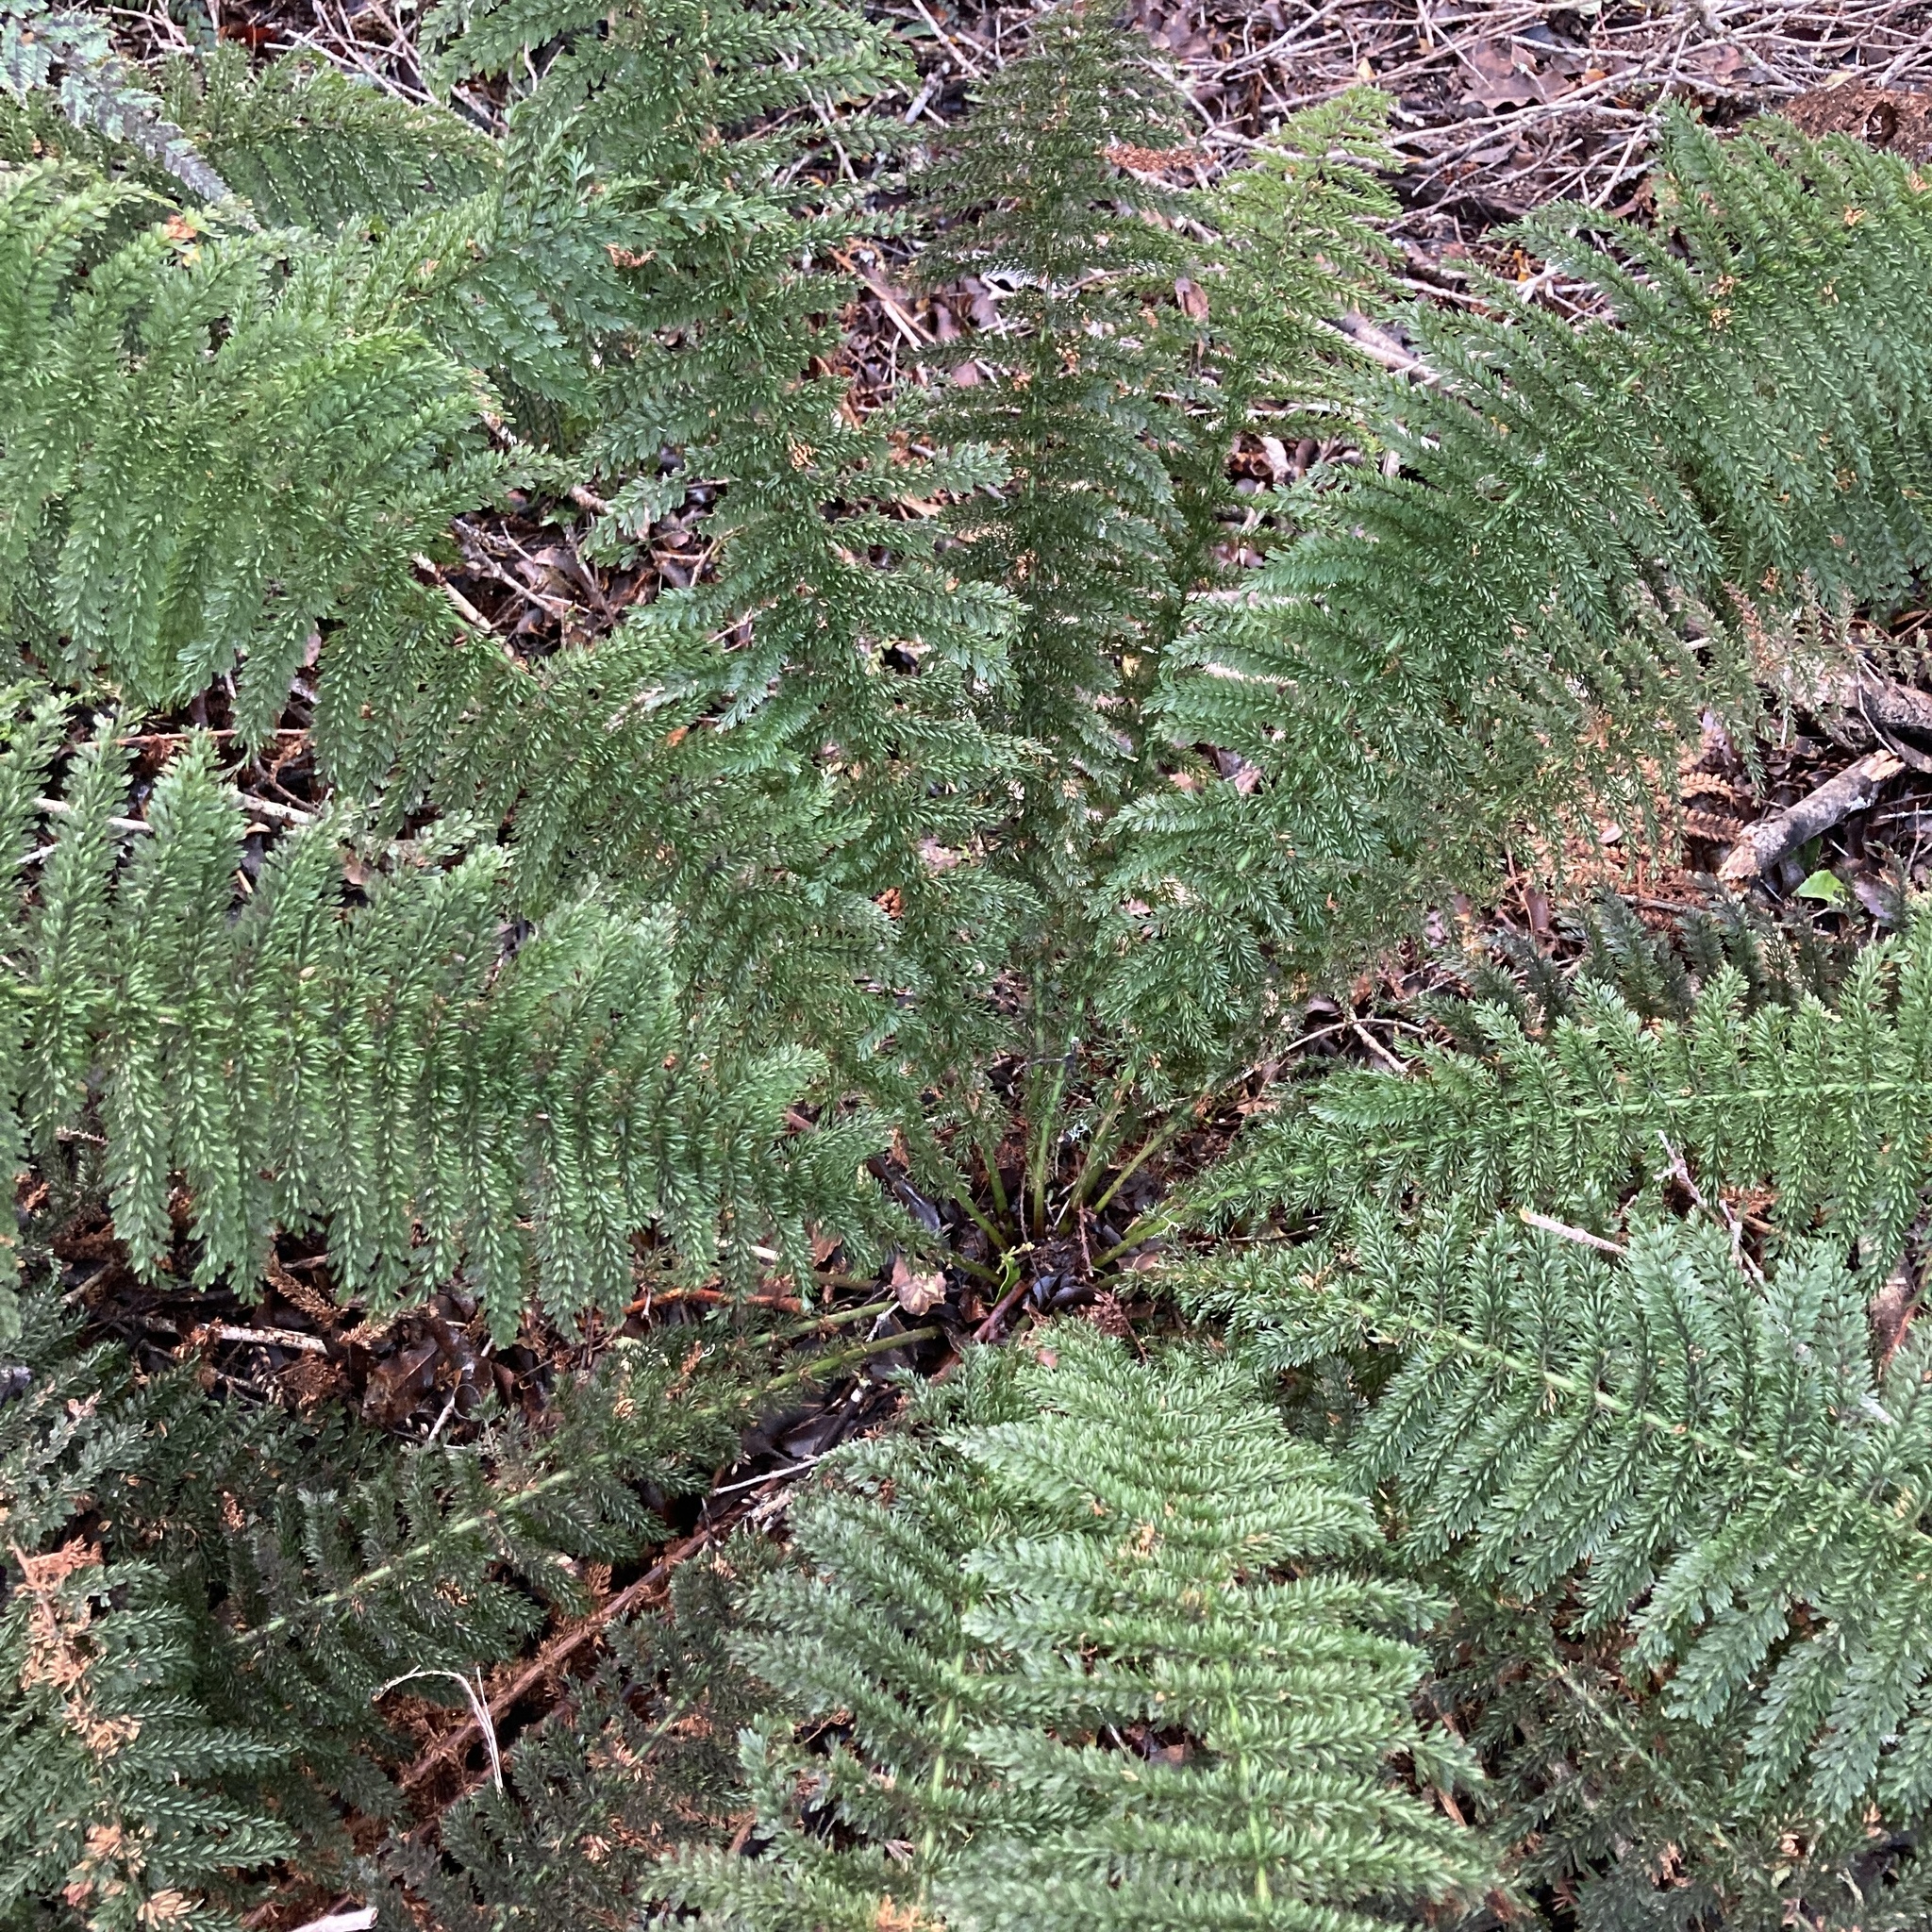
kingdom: Plantae
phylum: Tracheophyta
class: Polypodiopsida
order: Osmundales
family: Osmundaceae
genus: Leptopteris
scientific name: Leptopteris superba
